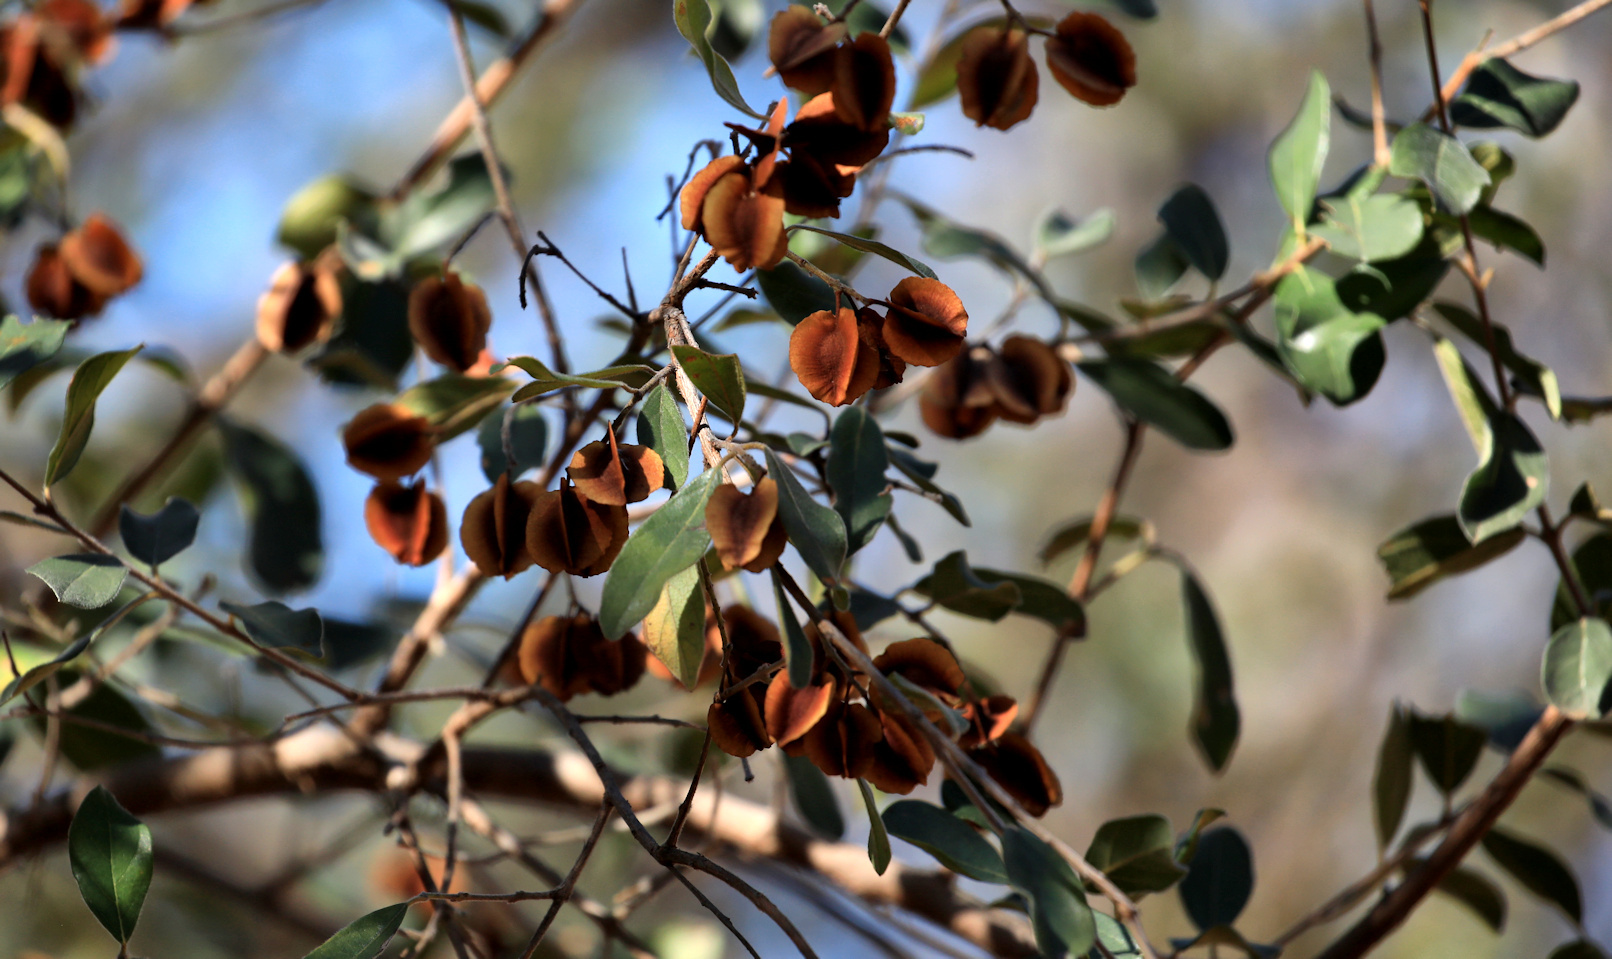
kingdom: Plantae
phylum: Tracheophyta
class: Magnoliopsida
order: Myrtales
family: Combretaceae
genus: Combretum
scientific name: Combretum hereroense
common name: Russet bushwillow
